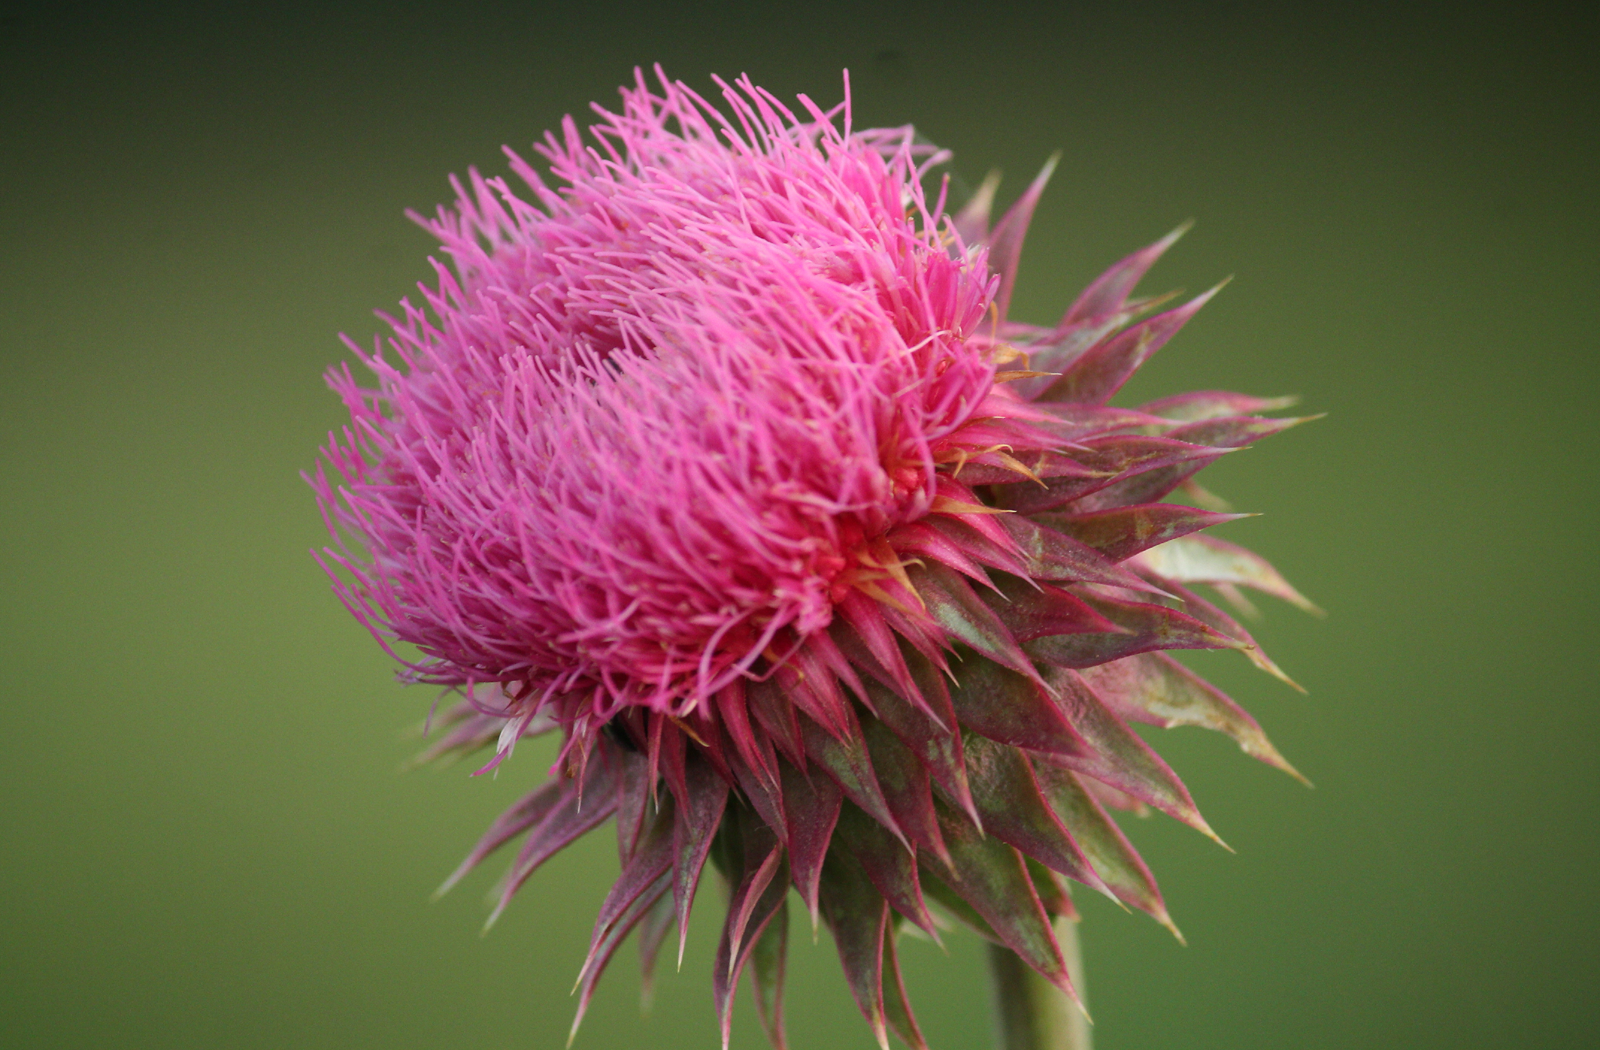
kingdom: Plantae
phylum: Tracheophyta
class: Magnoliopsida
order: Asterales
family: Asteraceae
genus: Carduus
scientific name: Carduus nutans
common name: Musk thistle
